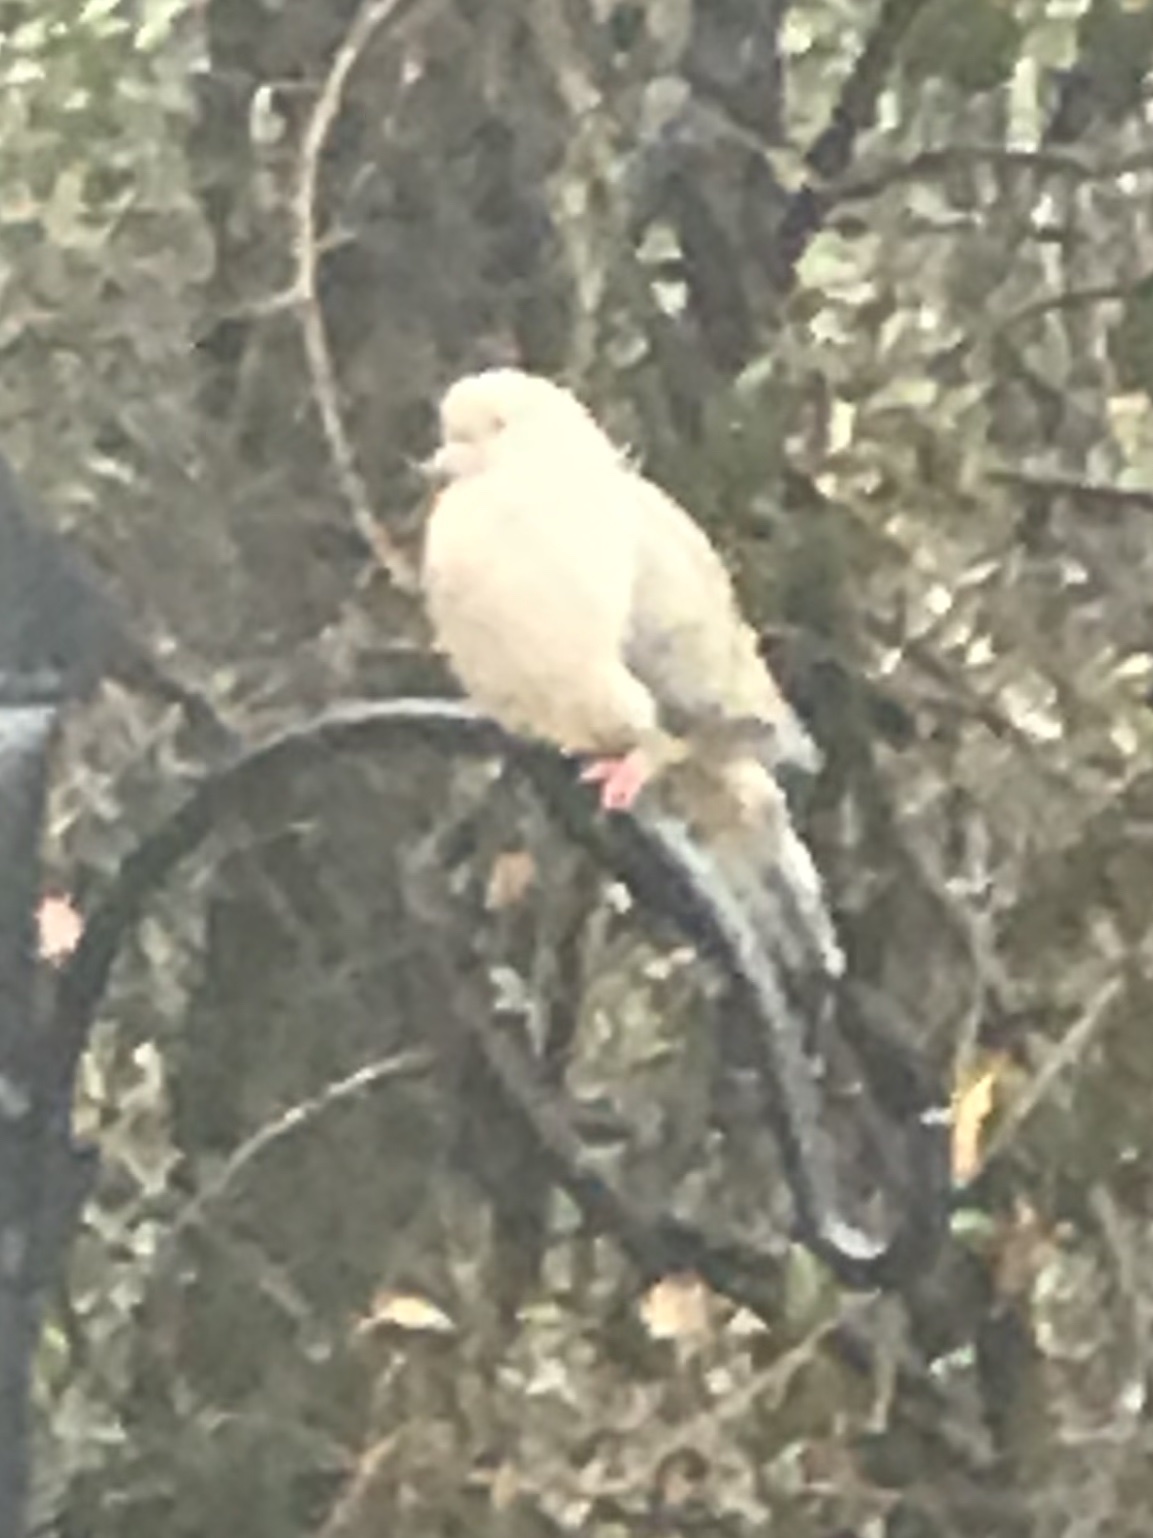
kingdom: Animalia
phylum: Chordata
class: Aves
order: Columbiformes
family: Columbidae
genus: Zenaida
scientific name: Zenaida macroura
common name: Mourning dove
